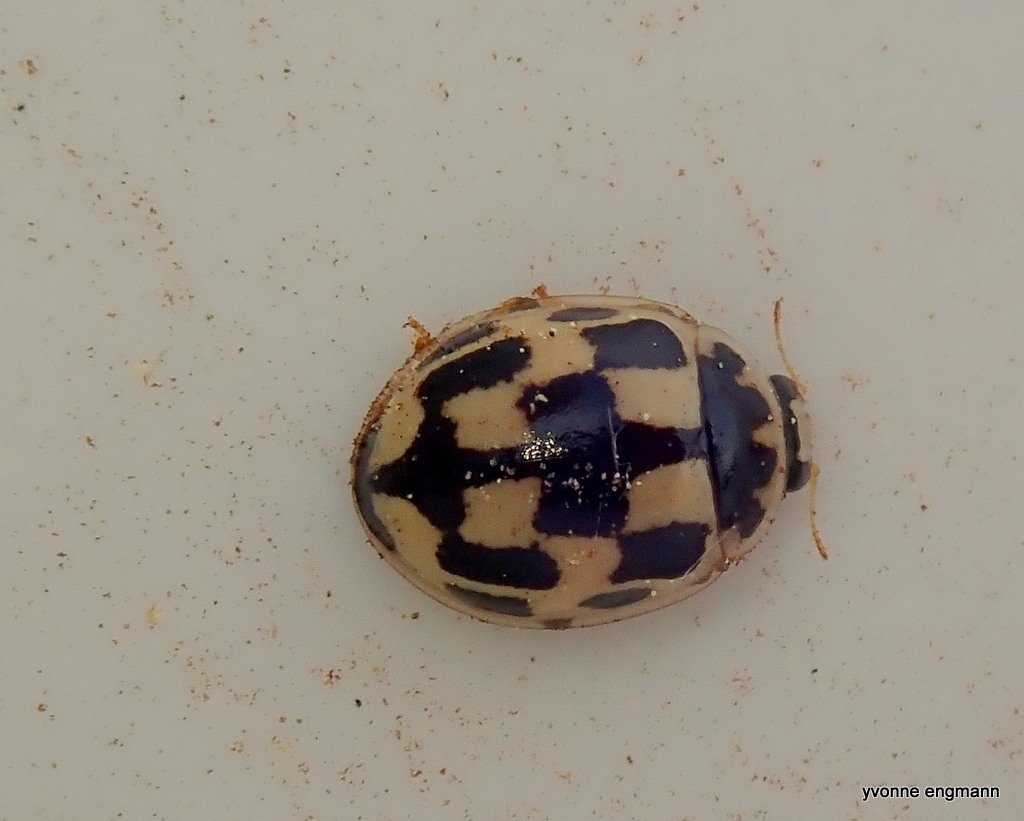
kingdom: Animalia
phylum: Arthropoda
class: Insecta
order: Coleoptera
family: Coccinellidae
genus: Propylaea
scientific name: Propylaea quatuordecimpunctata
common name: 14-spotted ladybird beetle
